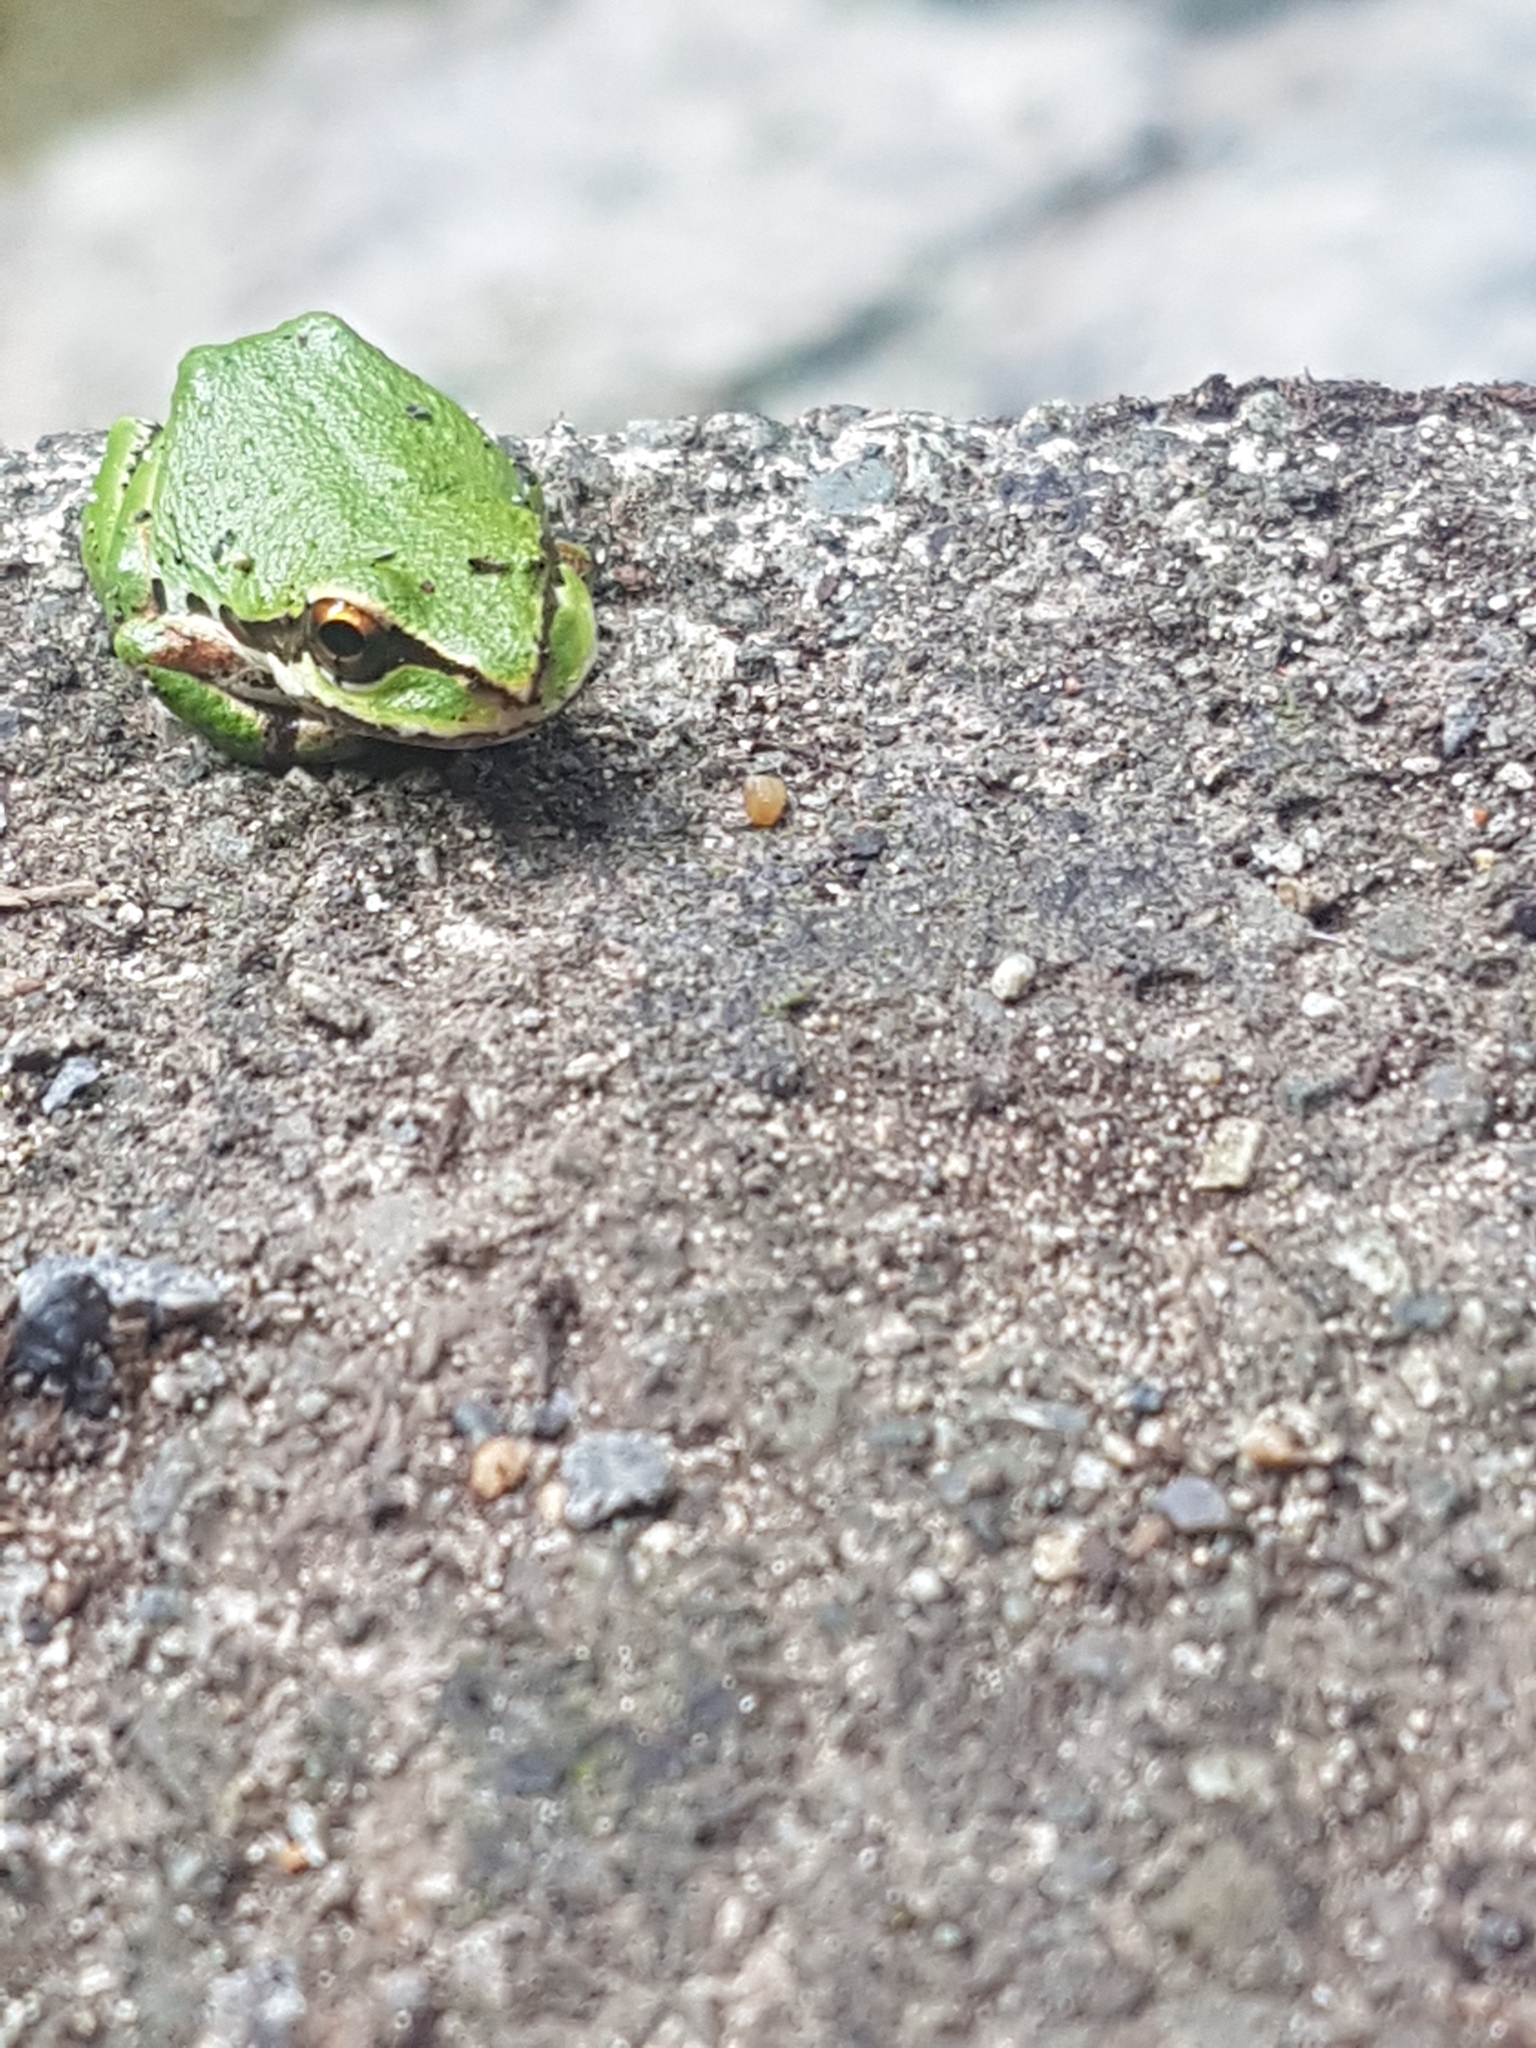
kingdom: Animalia
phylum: Chordata
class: Amphibia
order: Anura
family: Hylidae
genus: Pseudacris
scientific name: Pseudacris regilla
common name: Pacific chorus frog
